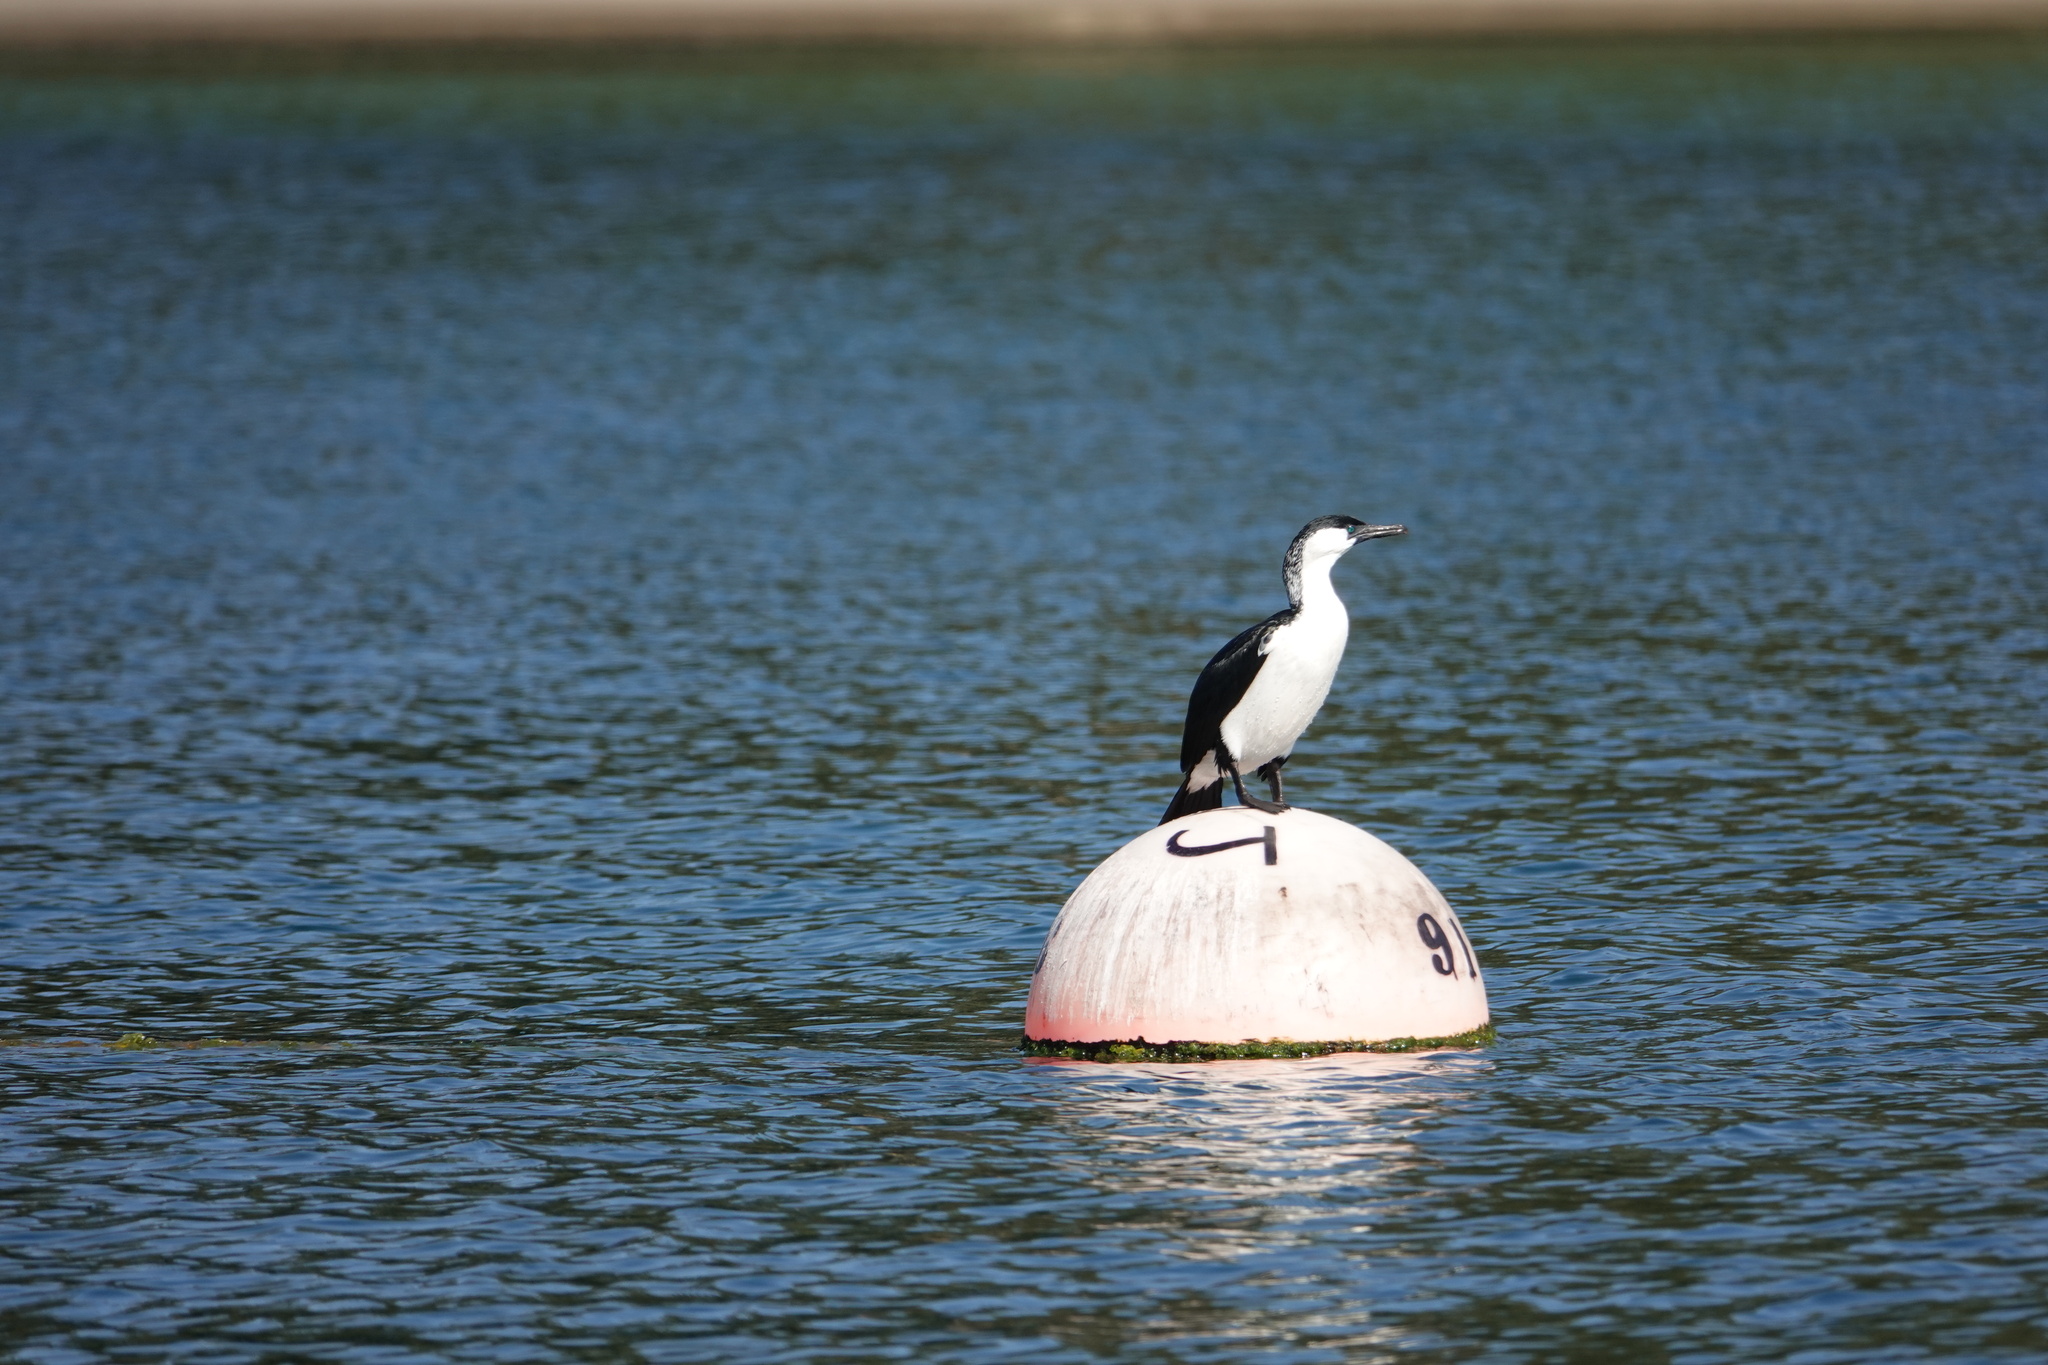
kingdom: Animalia
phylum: Chordata
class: Aves
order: Suliformes
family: Phalacrocoracidae
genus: Phalacrocorax
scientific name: Phalacrocorax fuscescens
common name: Black-faced cormorant
